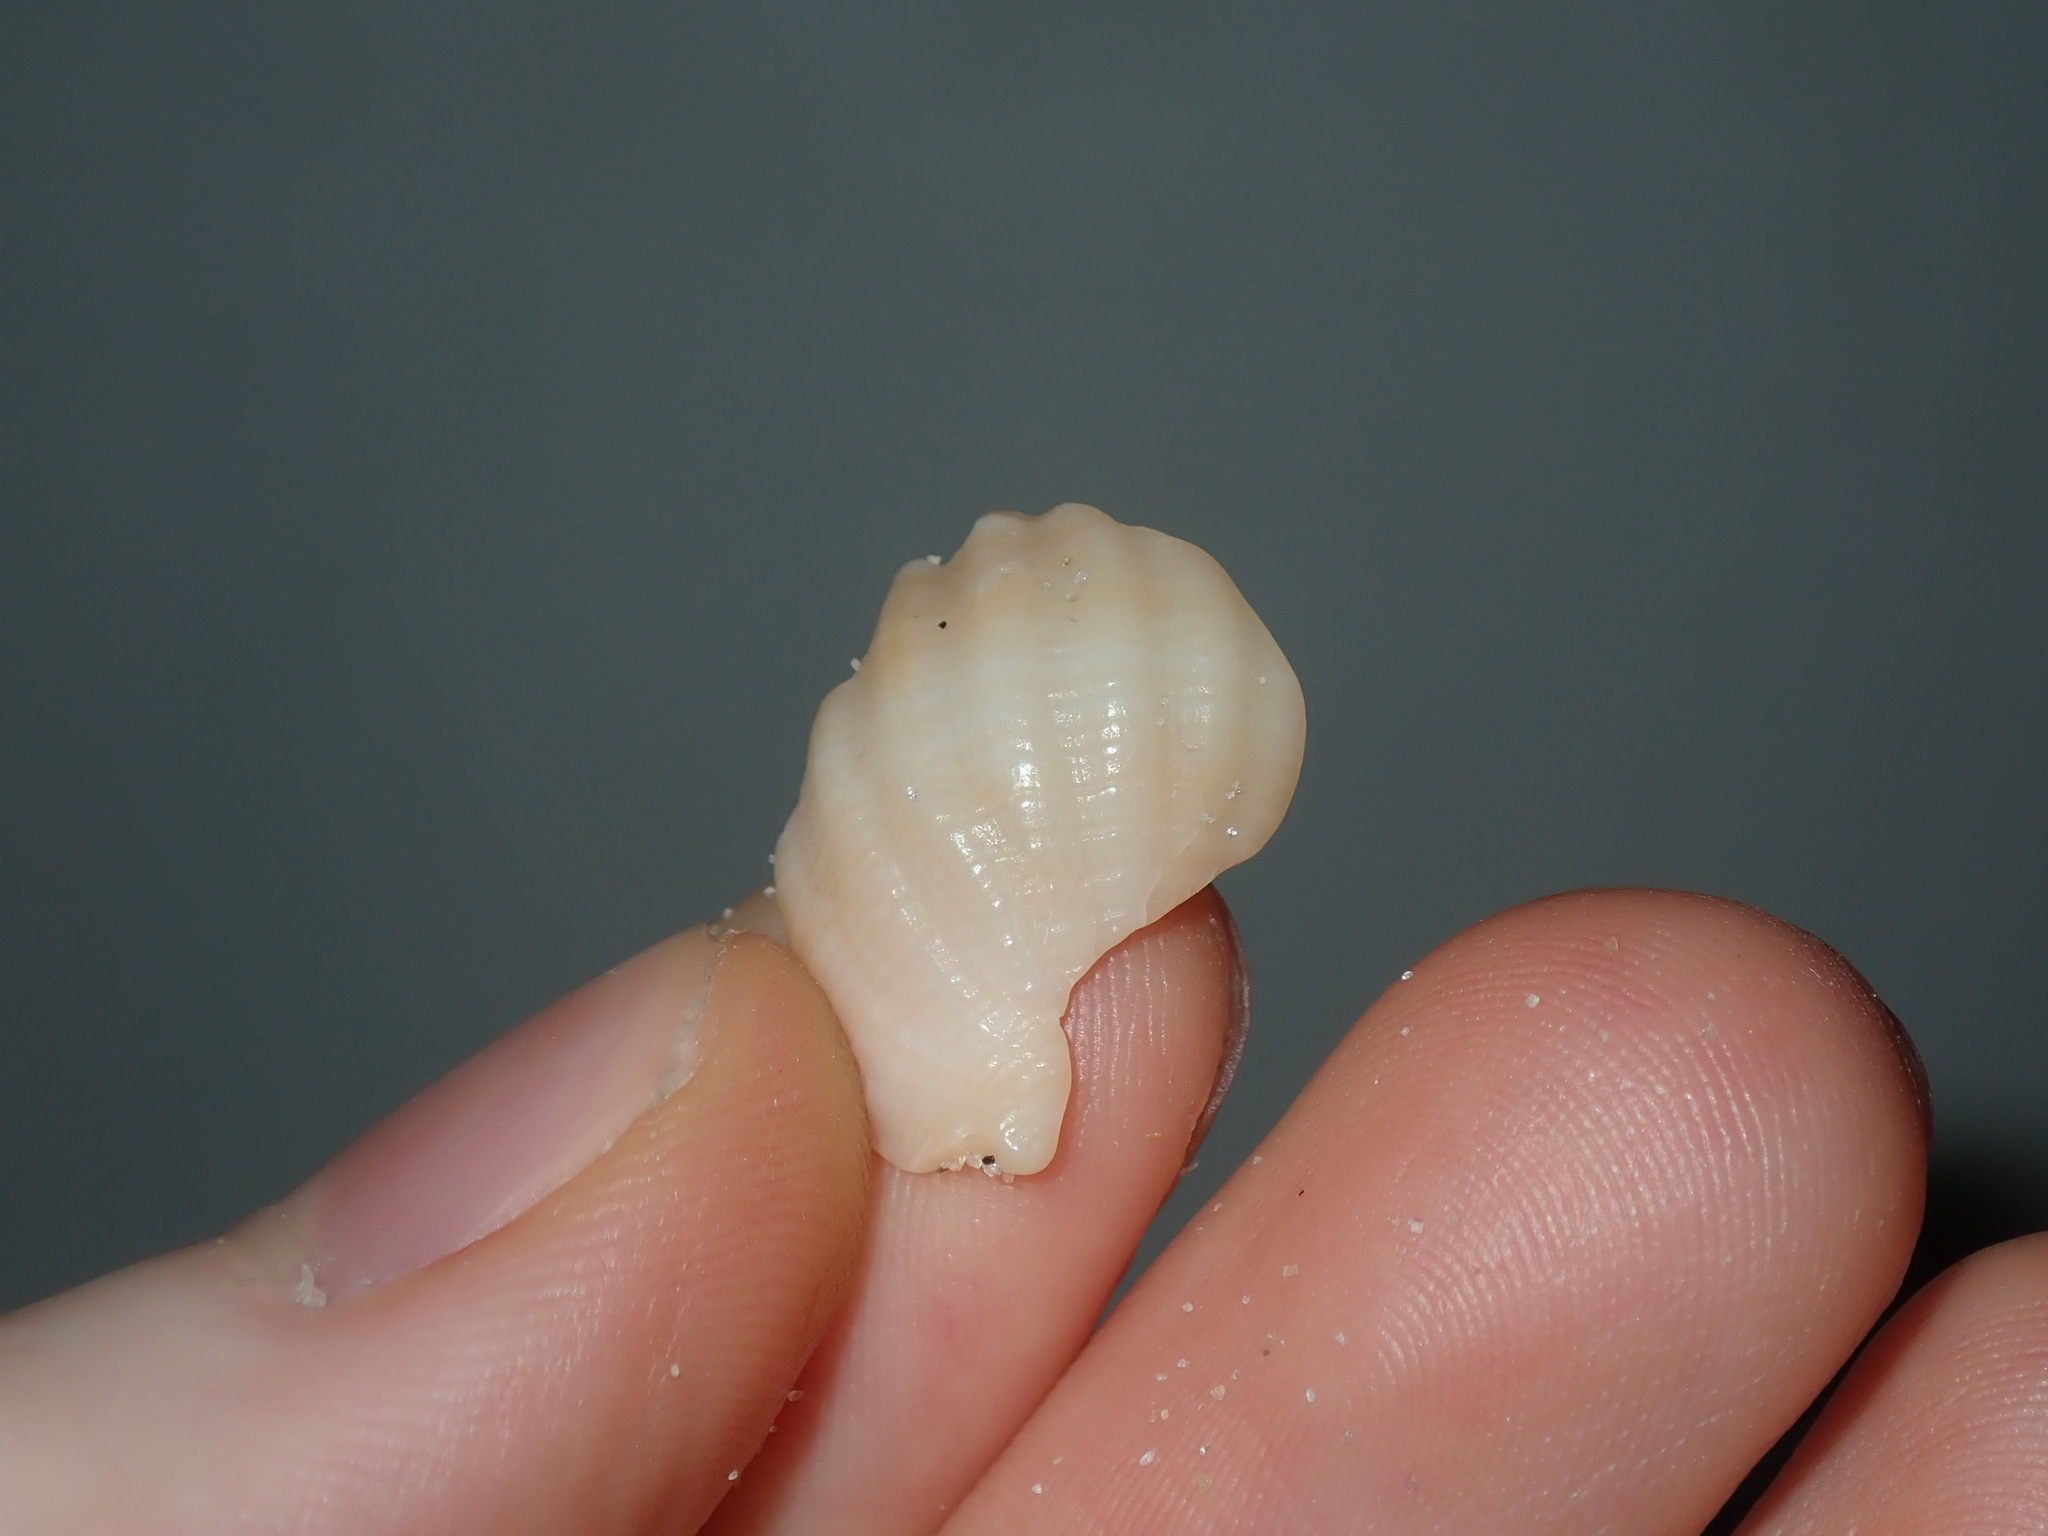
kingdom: Animalia
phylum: Mollusca
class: Gastropoda
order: Neogastropoda
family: Cancellariidae
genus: Merica
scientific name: Merica undulata
